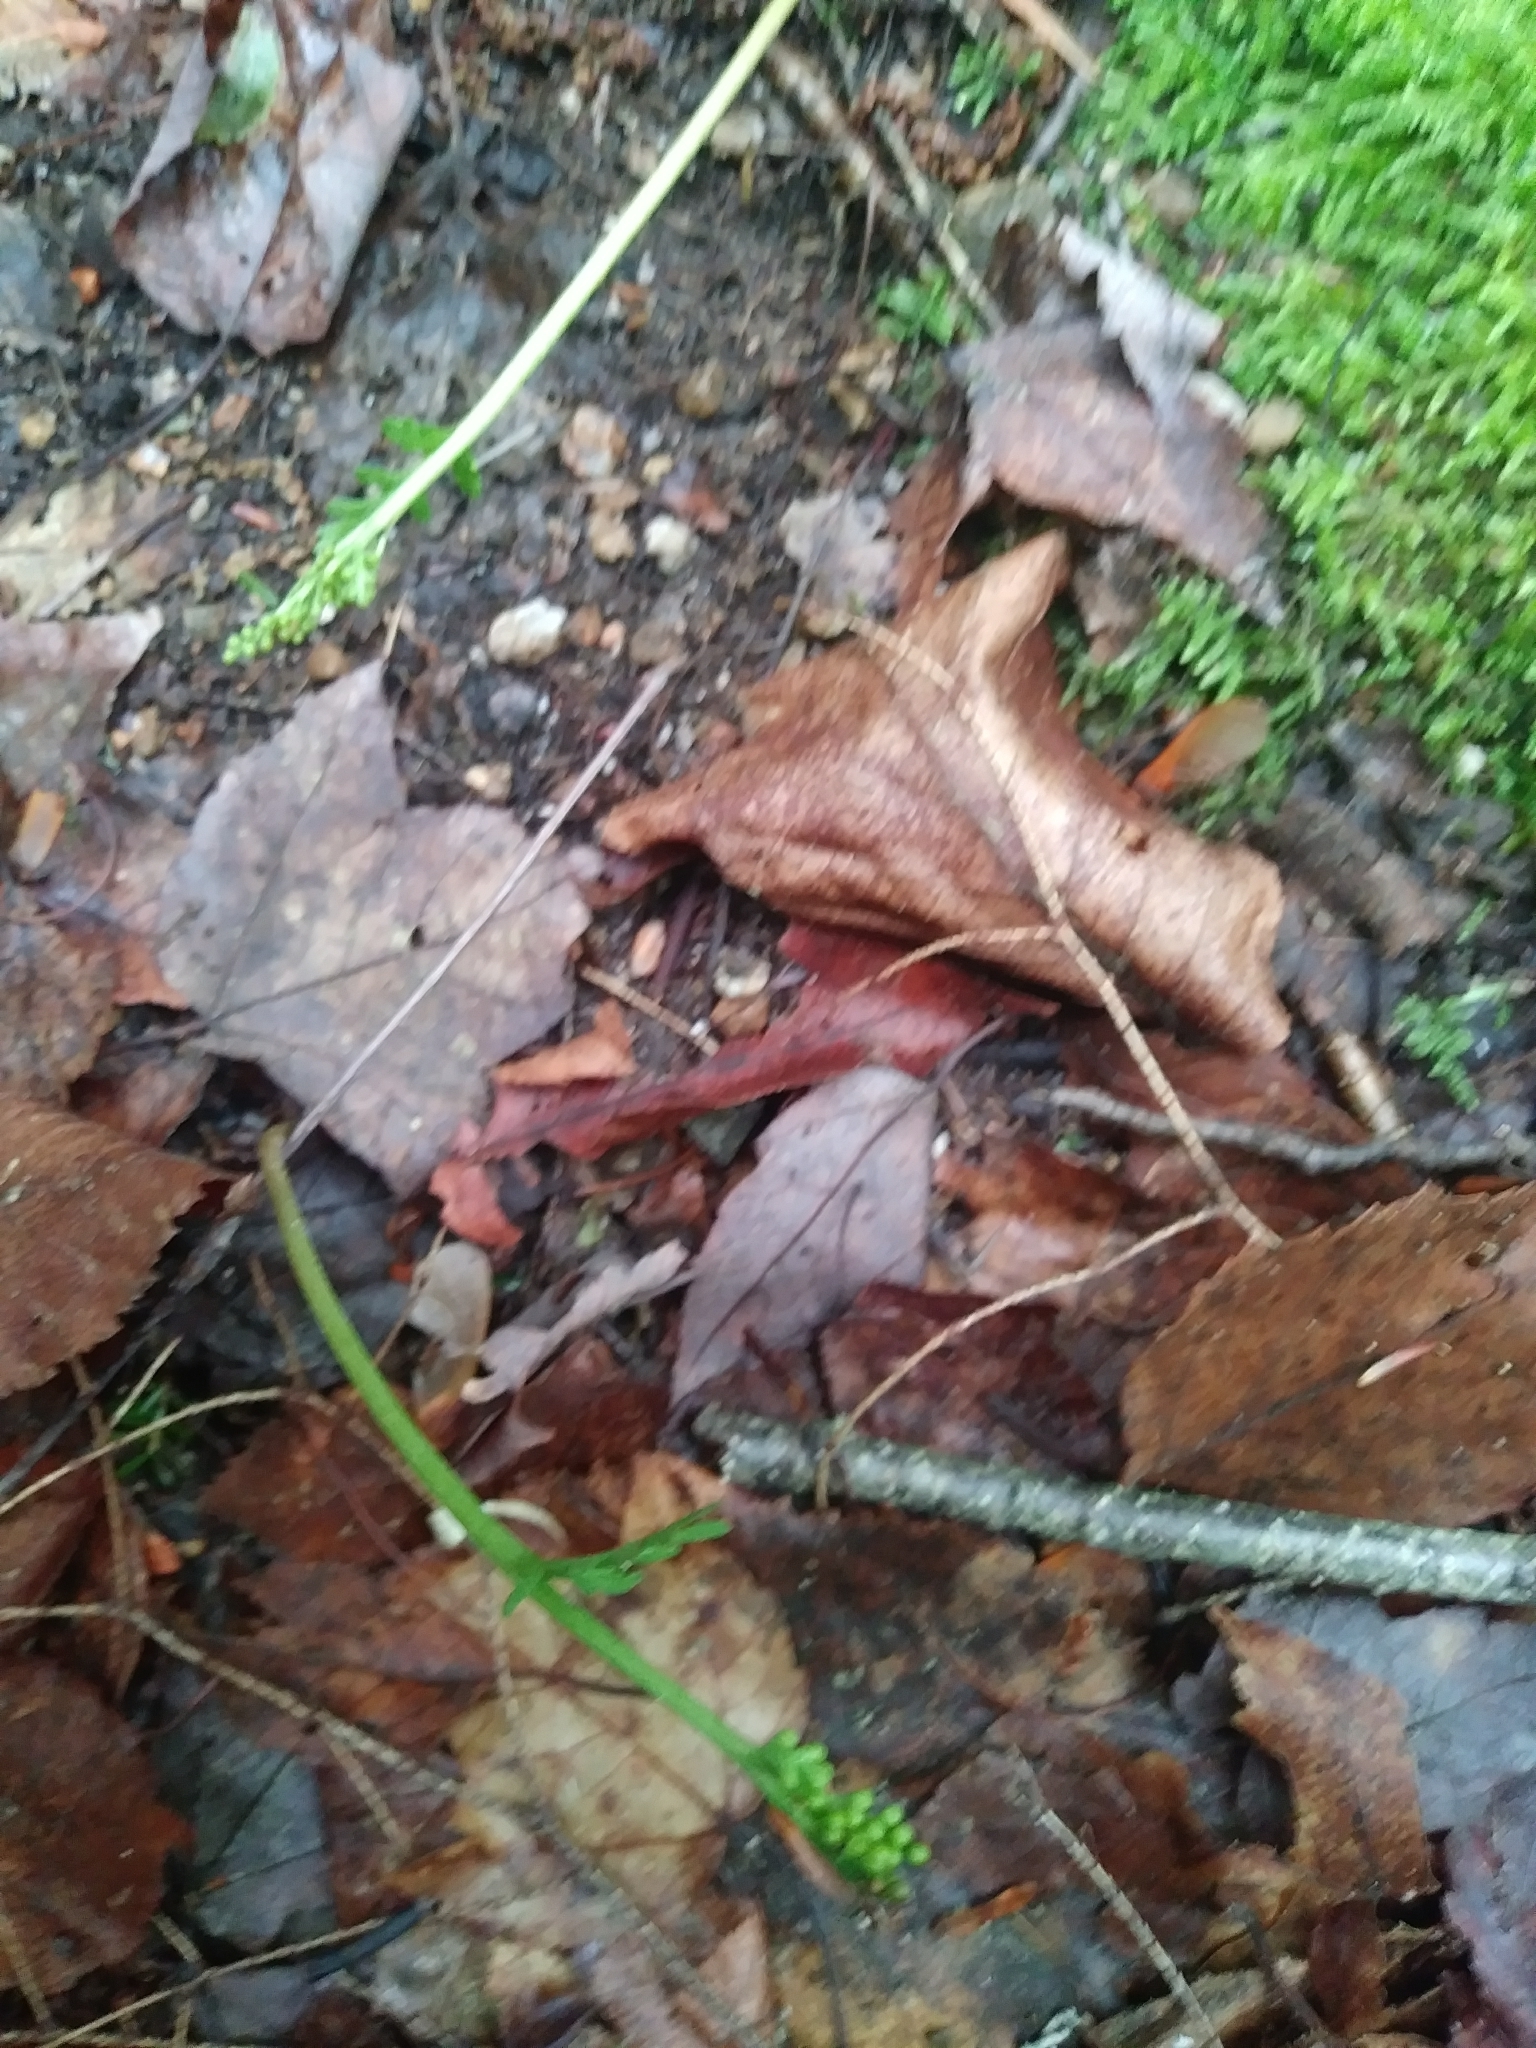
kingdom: Plantae
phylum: Tracheophyta
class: Polypodiopsida
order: Ophioglossales
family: Ophioglossaceae
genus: Botrychium
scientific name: Botrychium matricariifolium
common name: Branched moonwort
